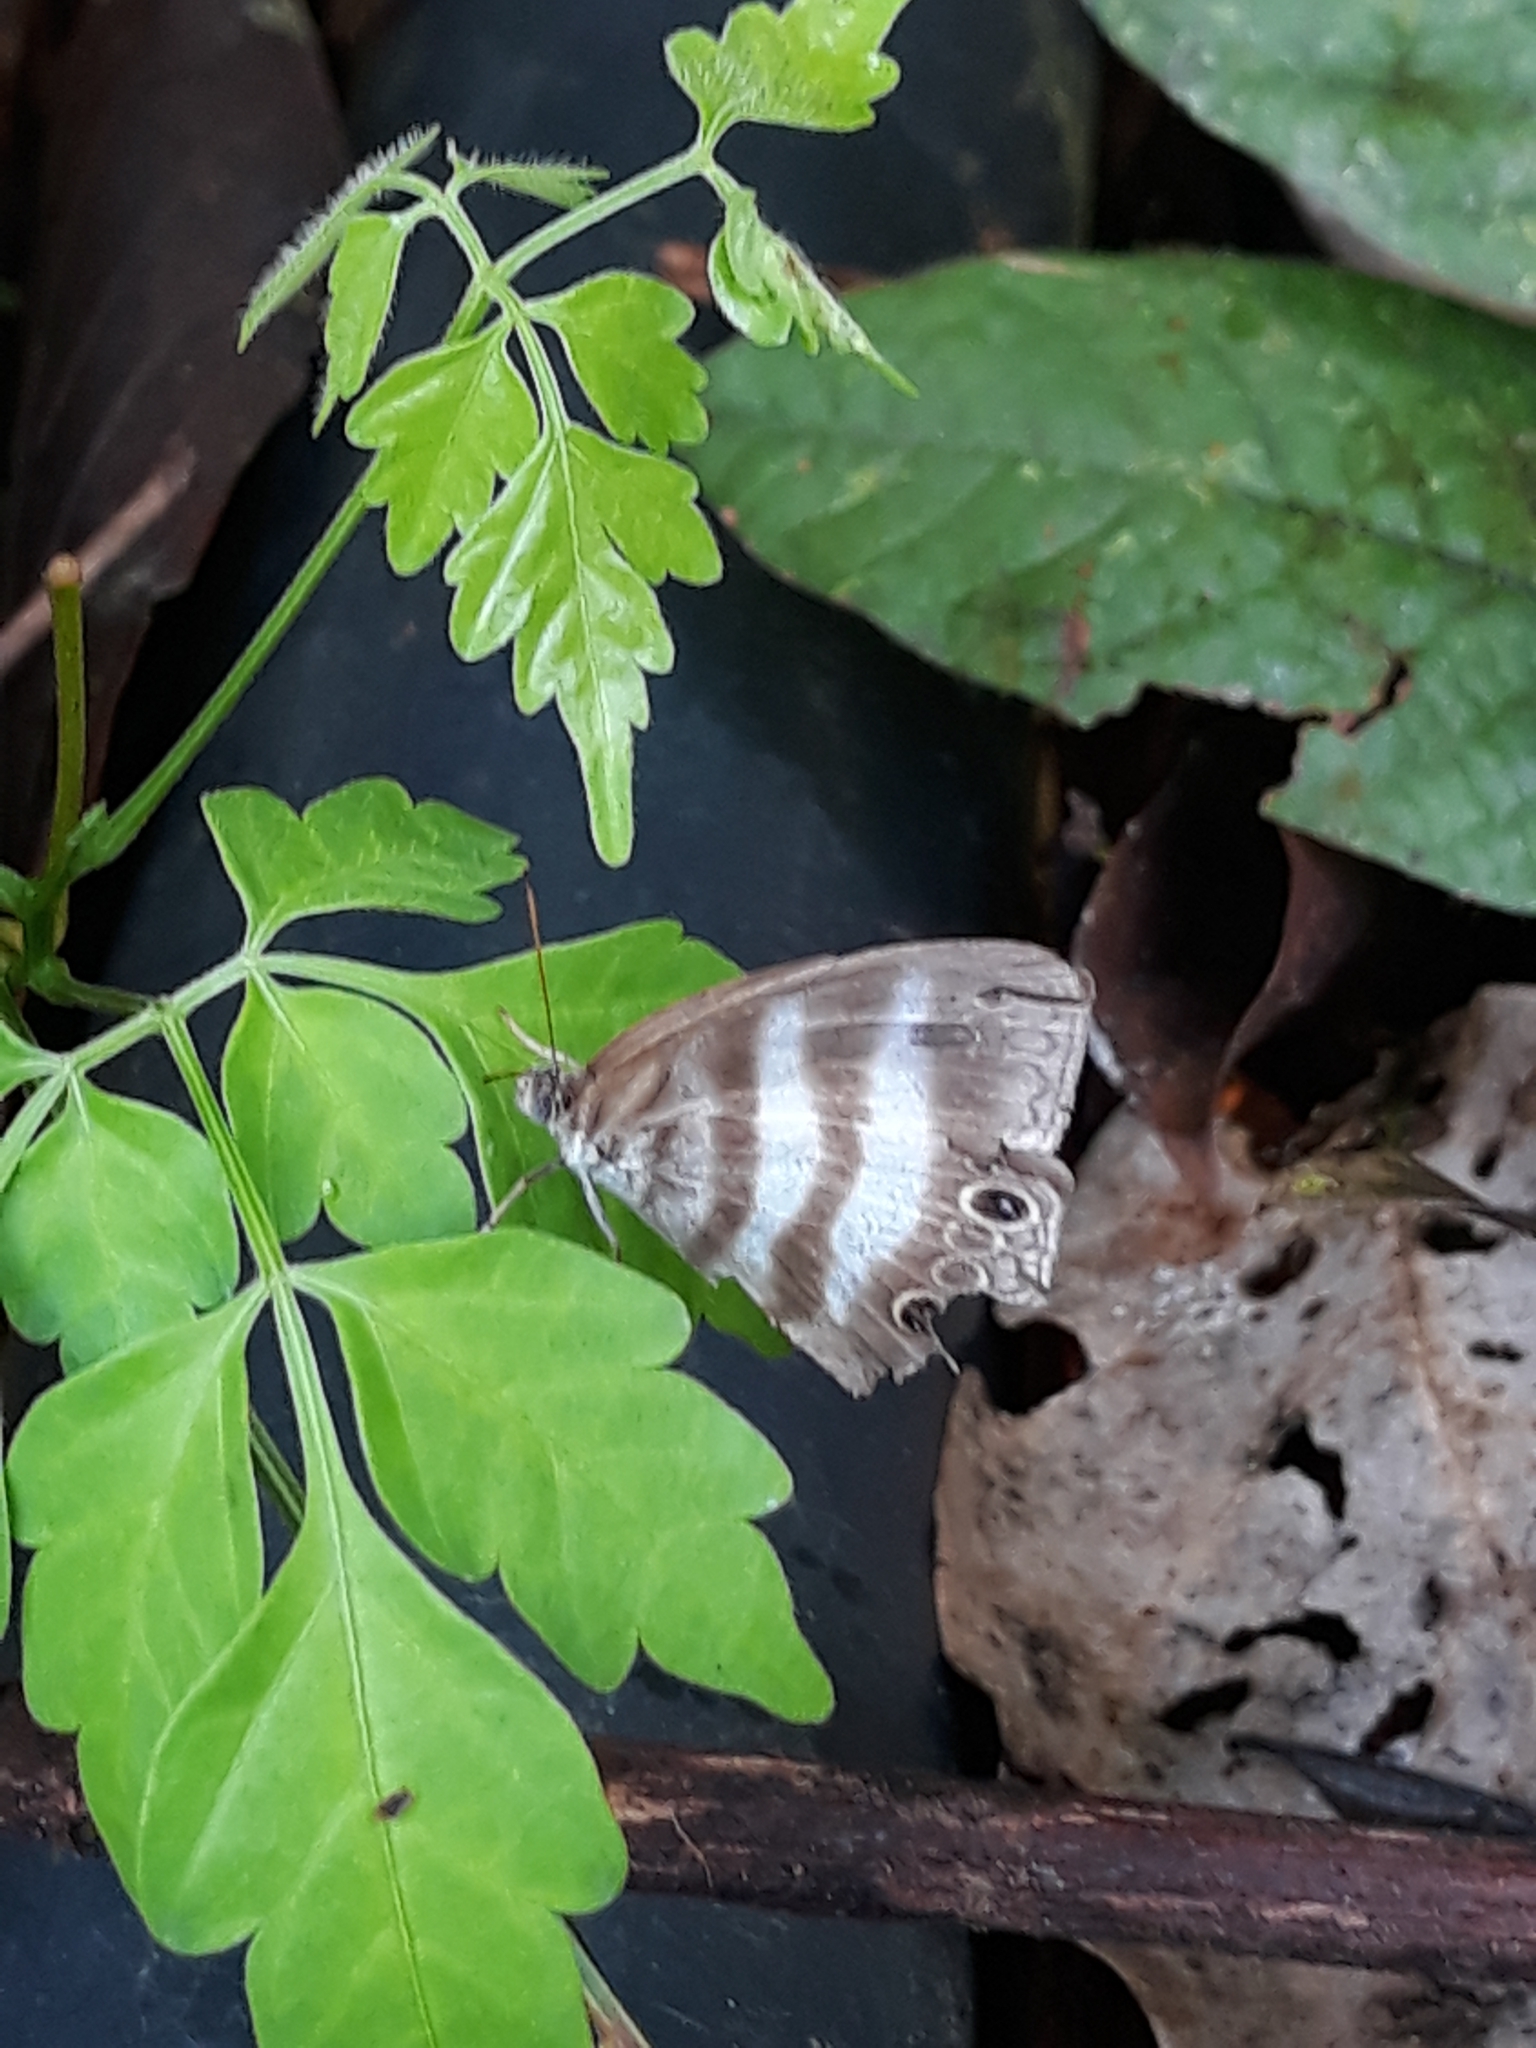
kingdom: Animalia
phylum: Arthropoda
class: Insecta
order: Lepidoptera
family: Nymphalidae
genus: Pareuptychia
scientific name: Pareuptychia hesione
